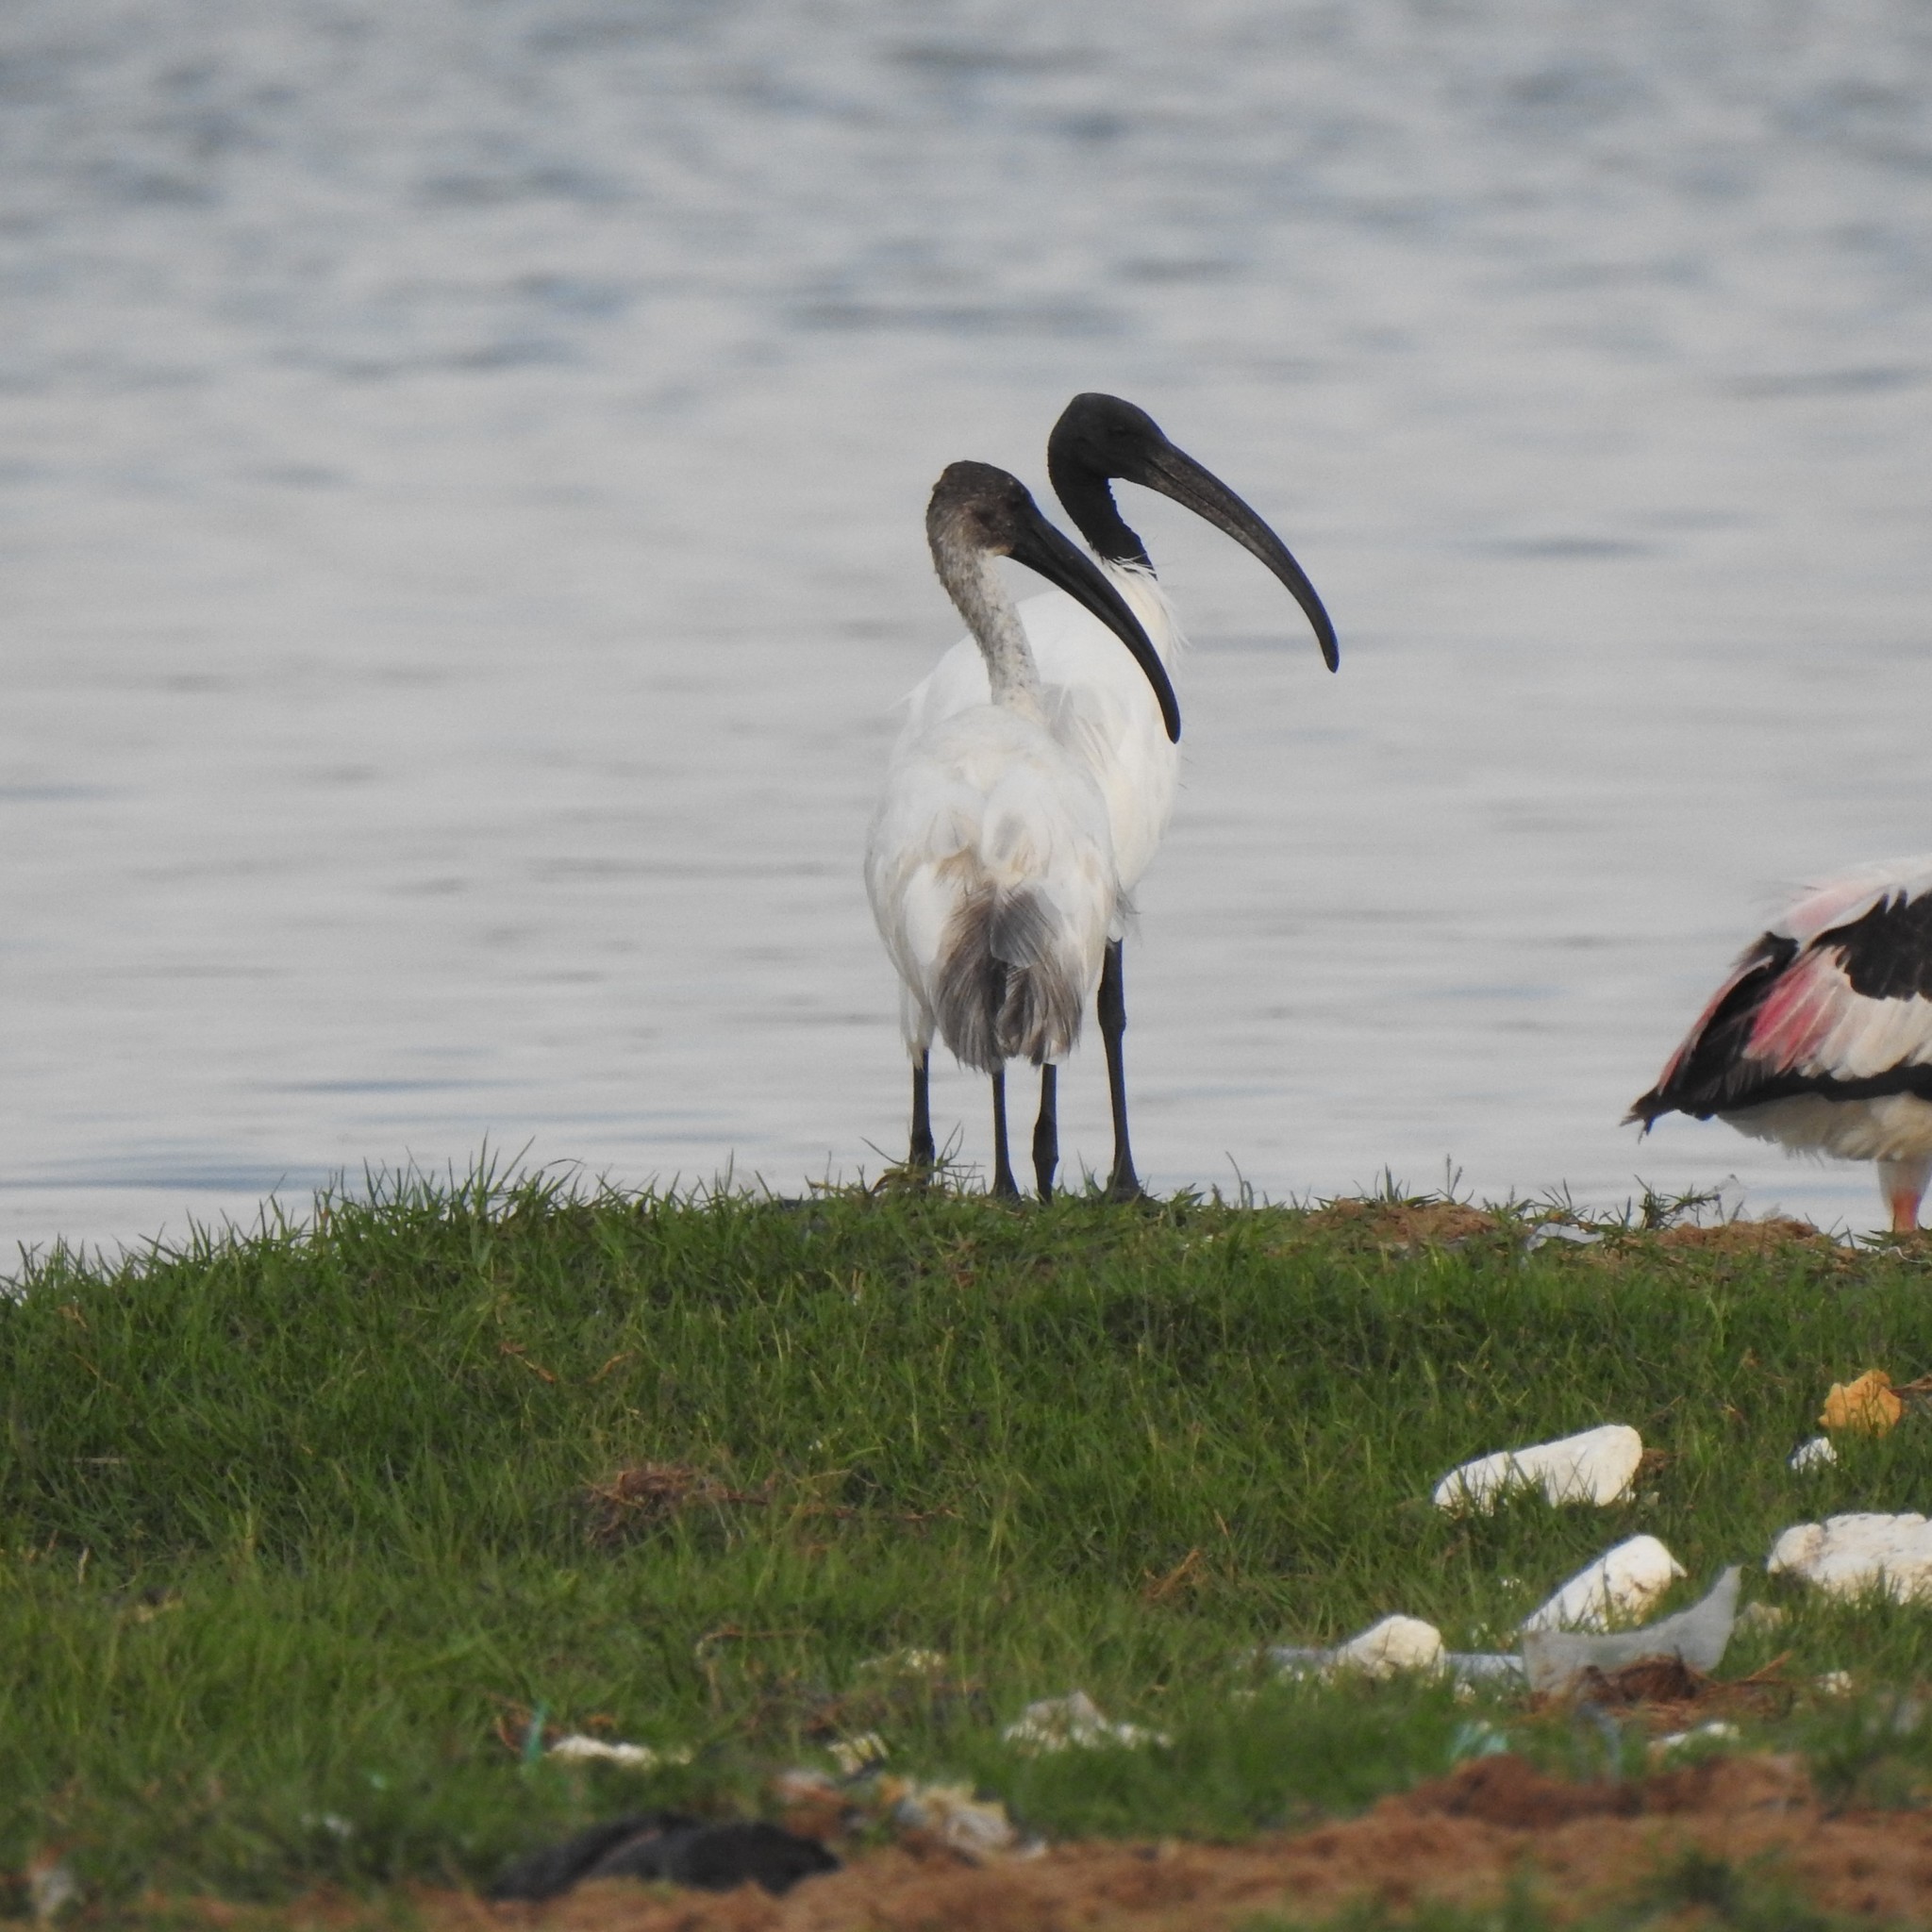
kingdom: Animalia
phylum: Chordata
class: Aves
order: Pelecaniformes
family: Threskiornithidae
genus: Threskiornis
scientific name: Threskiornis melanocephalus
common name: Black-headed ibis
